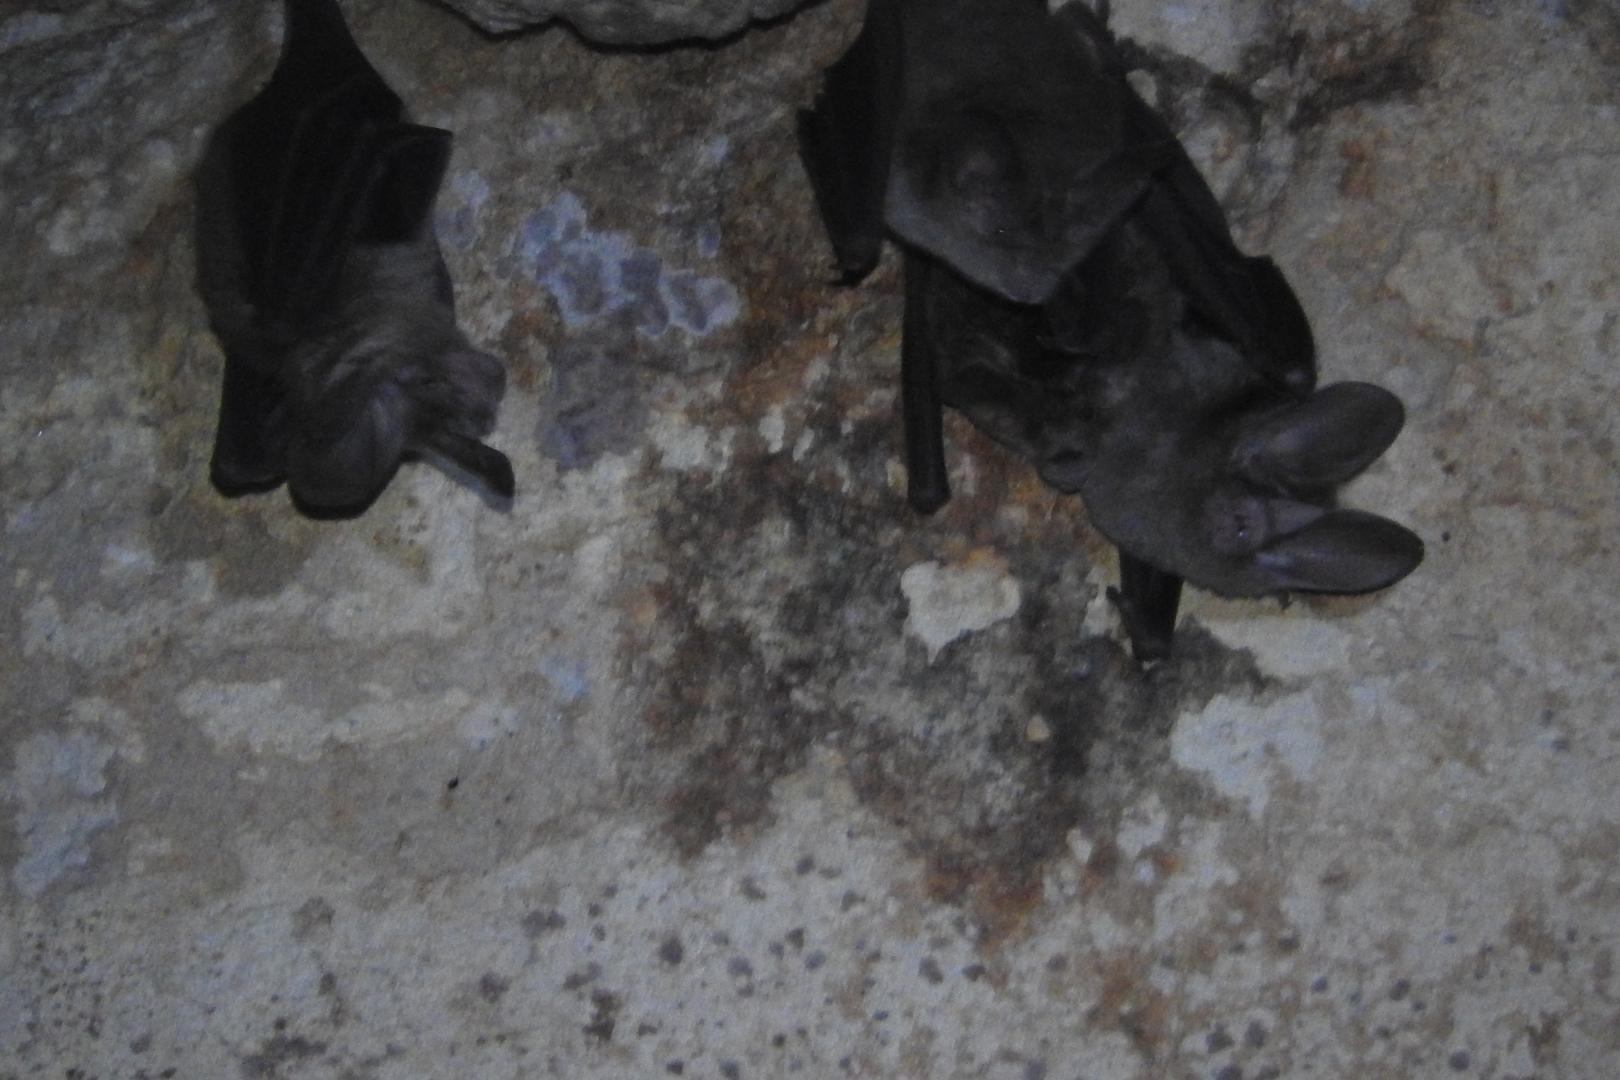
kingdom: Animalia
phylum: Chordata
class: Mammalia
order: Chiroptera
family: Phyllostomidae
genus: Micronycteris
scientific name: Micronycteris microtis
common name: Common big-eared bat
